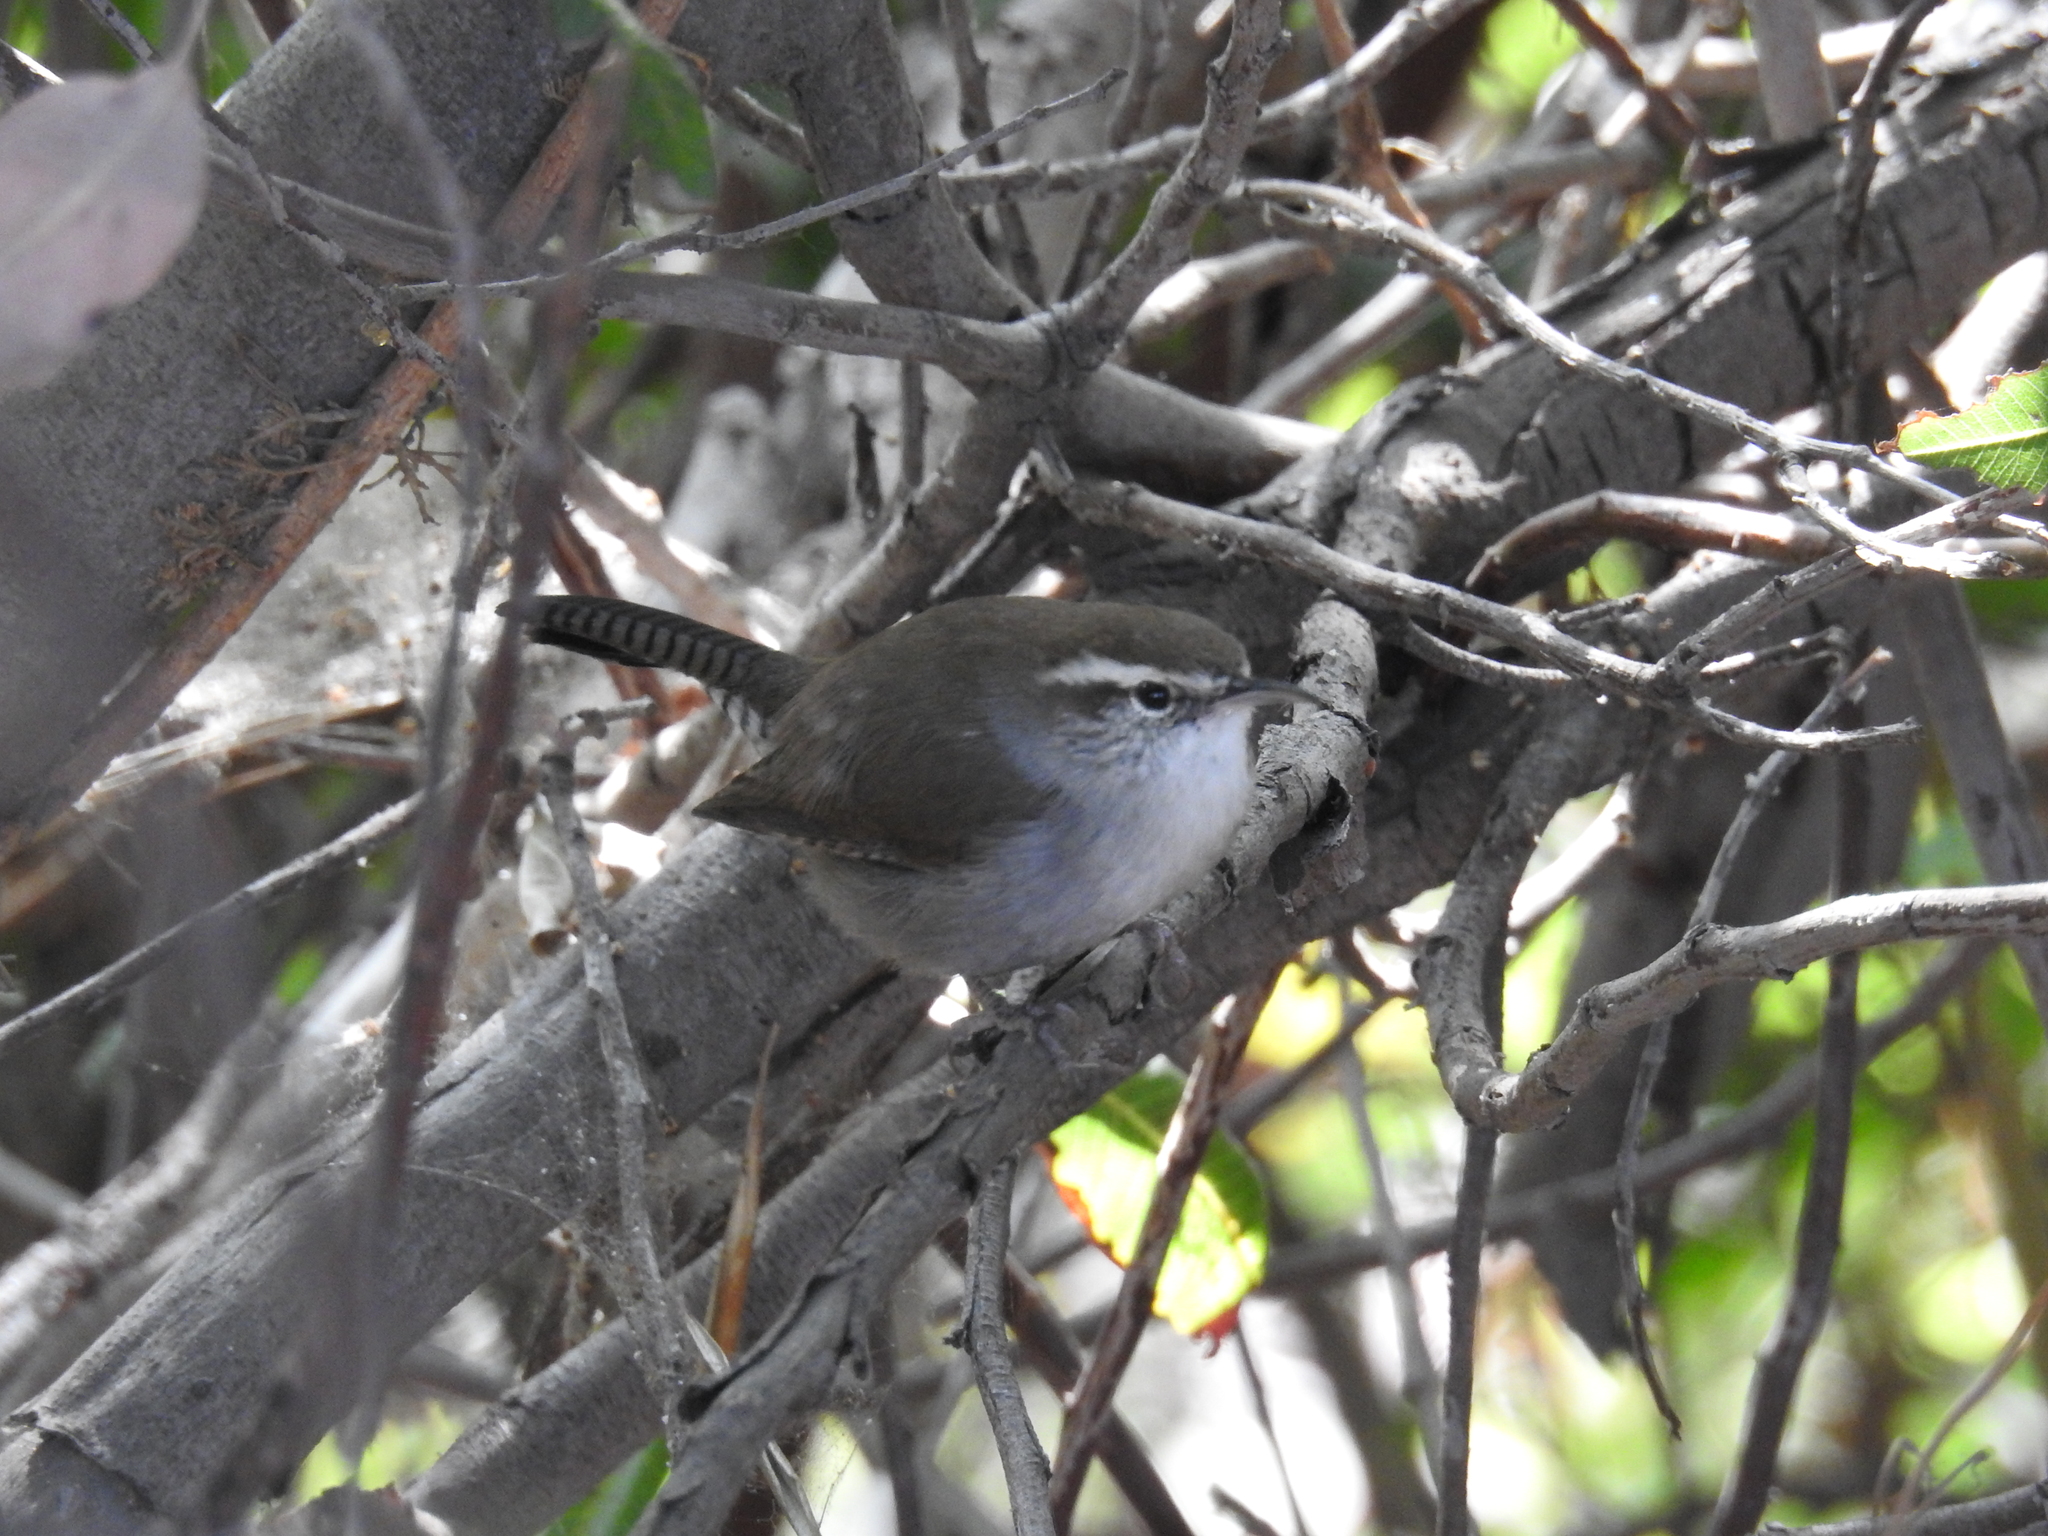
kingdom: Animalia
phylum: Chordata
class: Aves
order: Passeriformes
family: Troglodytidae
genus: Thryomanes
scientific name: Thryomanes bewickii
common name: Bewick's wren
